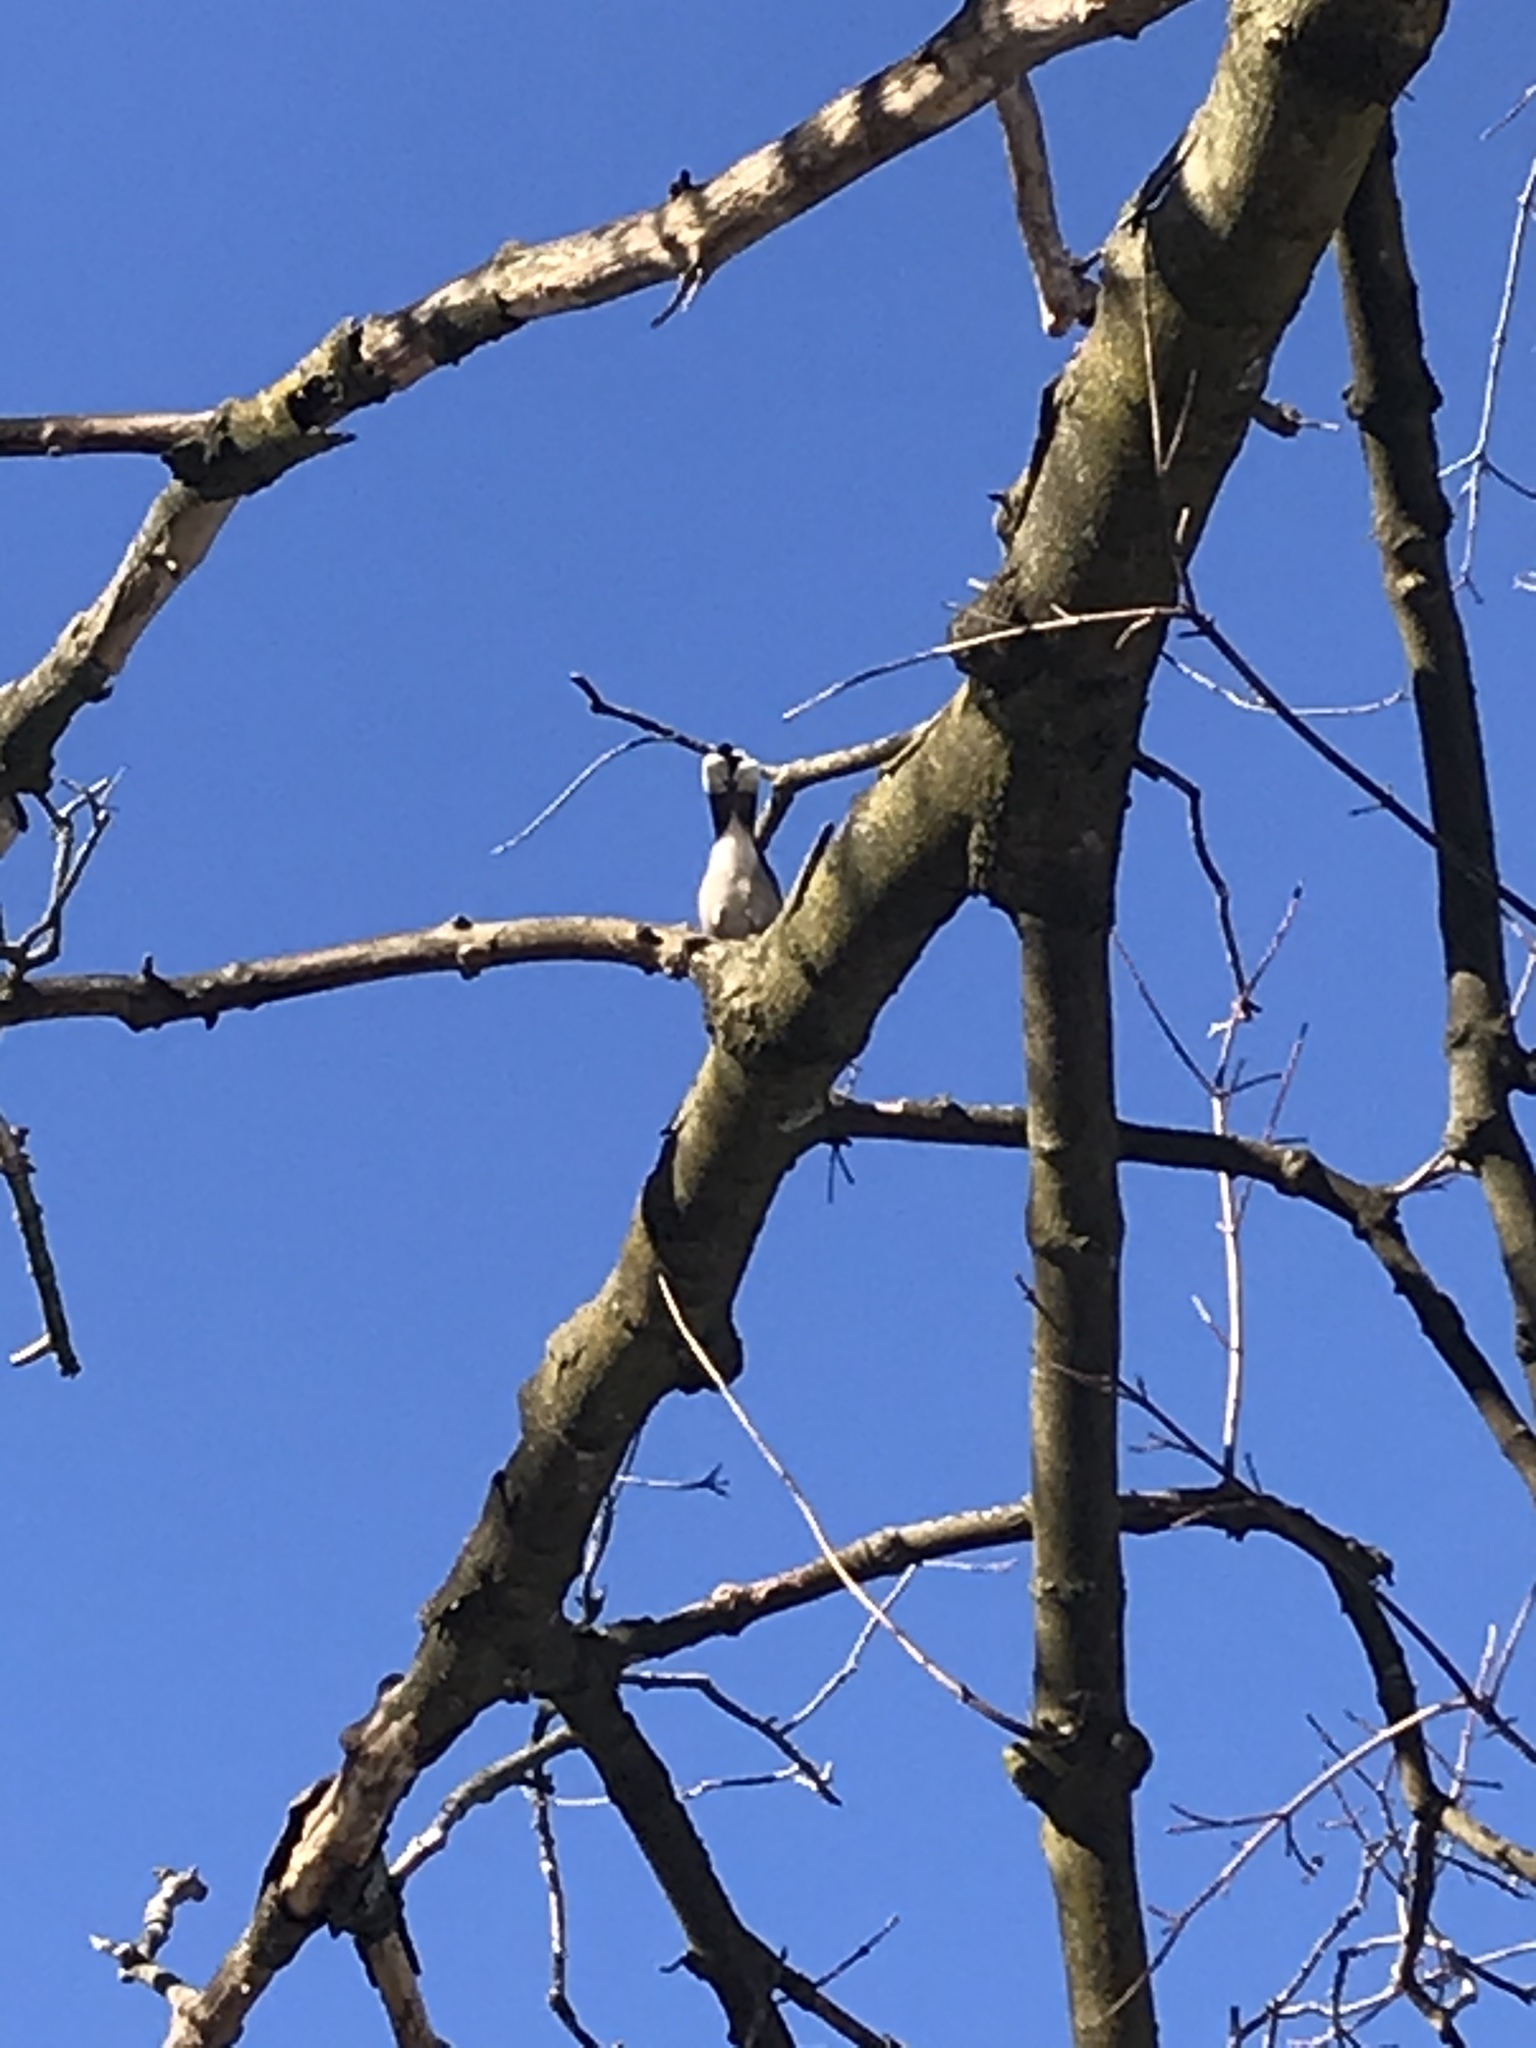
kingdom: Animalia
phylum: Chordata
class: Aves
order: Passeriformes
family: Corvidae
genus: Cyanocitta
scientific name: Cyanocitta cristata
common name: Blue jay
